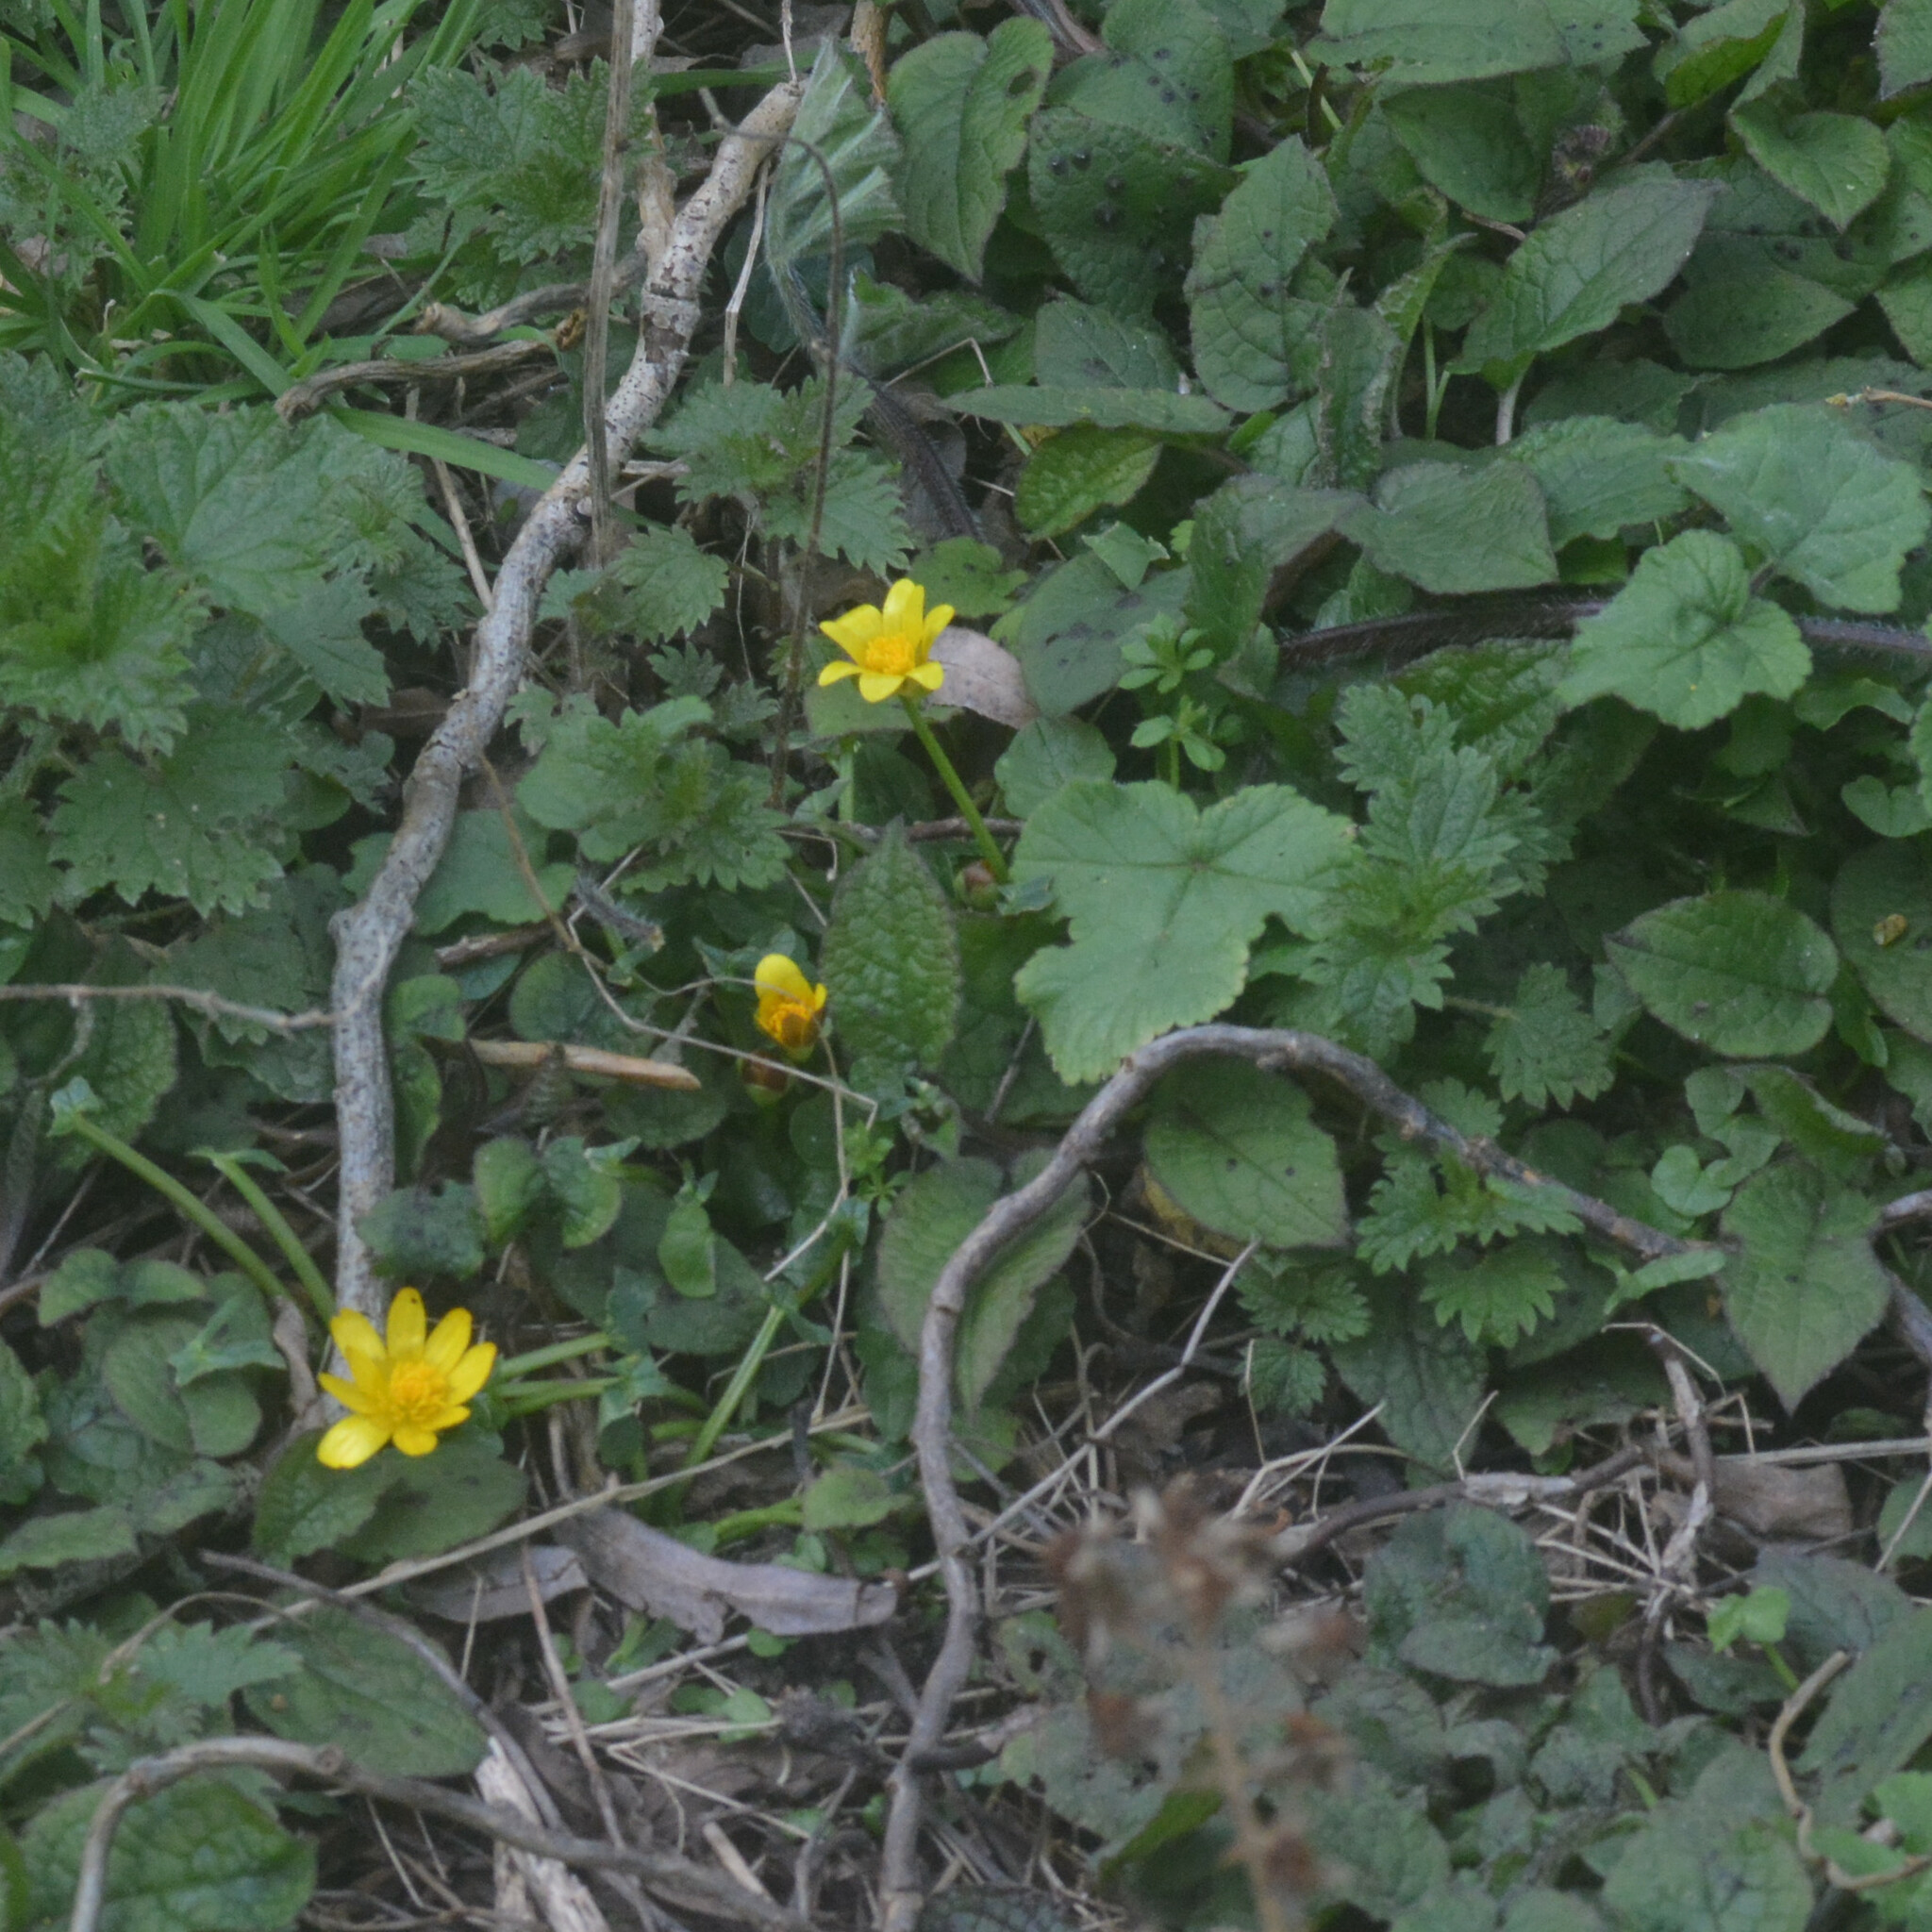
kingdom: Plantae
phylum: Tracheophyta
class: Magnoliopsida
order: Ranunculales
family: Ranunculaceae
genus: Ficaria
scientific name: Ficaria verna
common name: Lesser celandine
